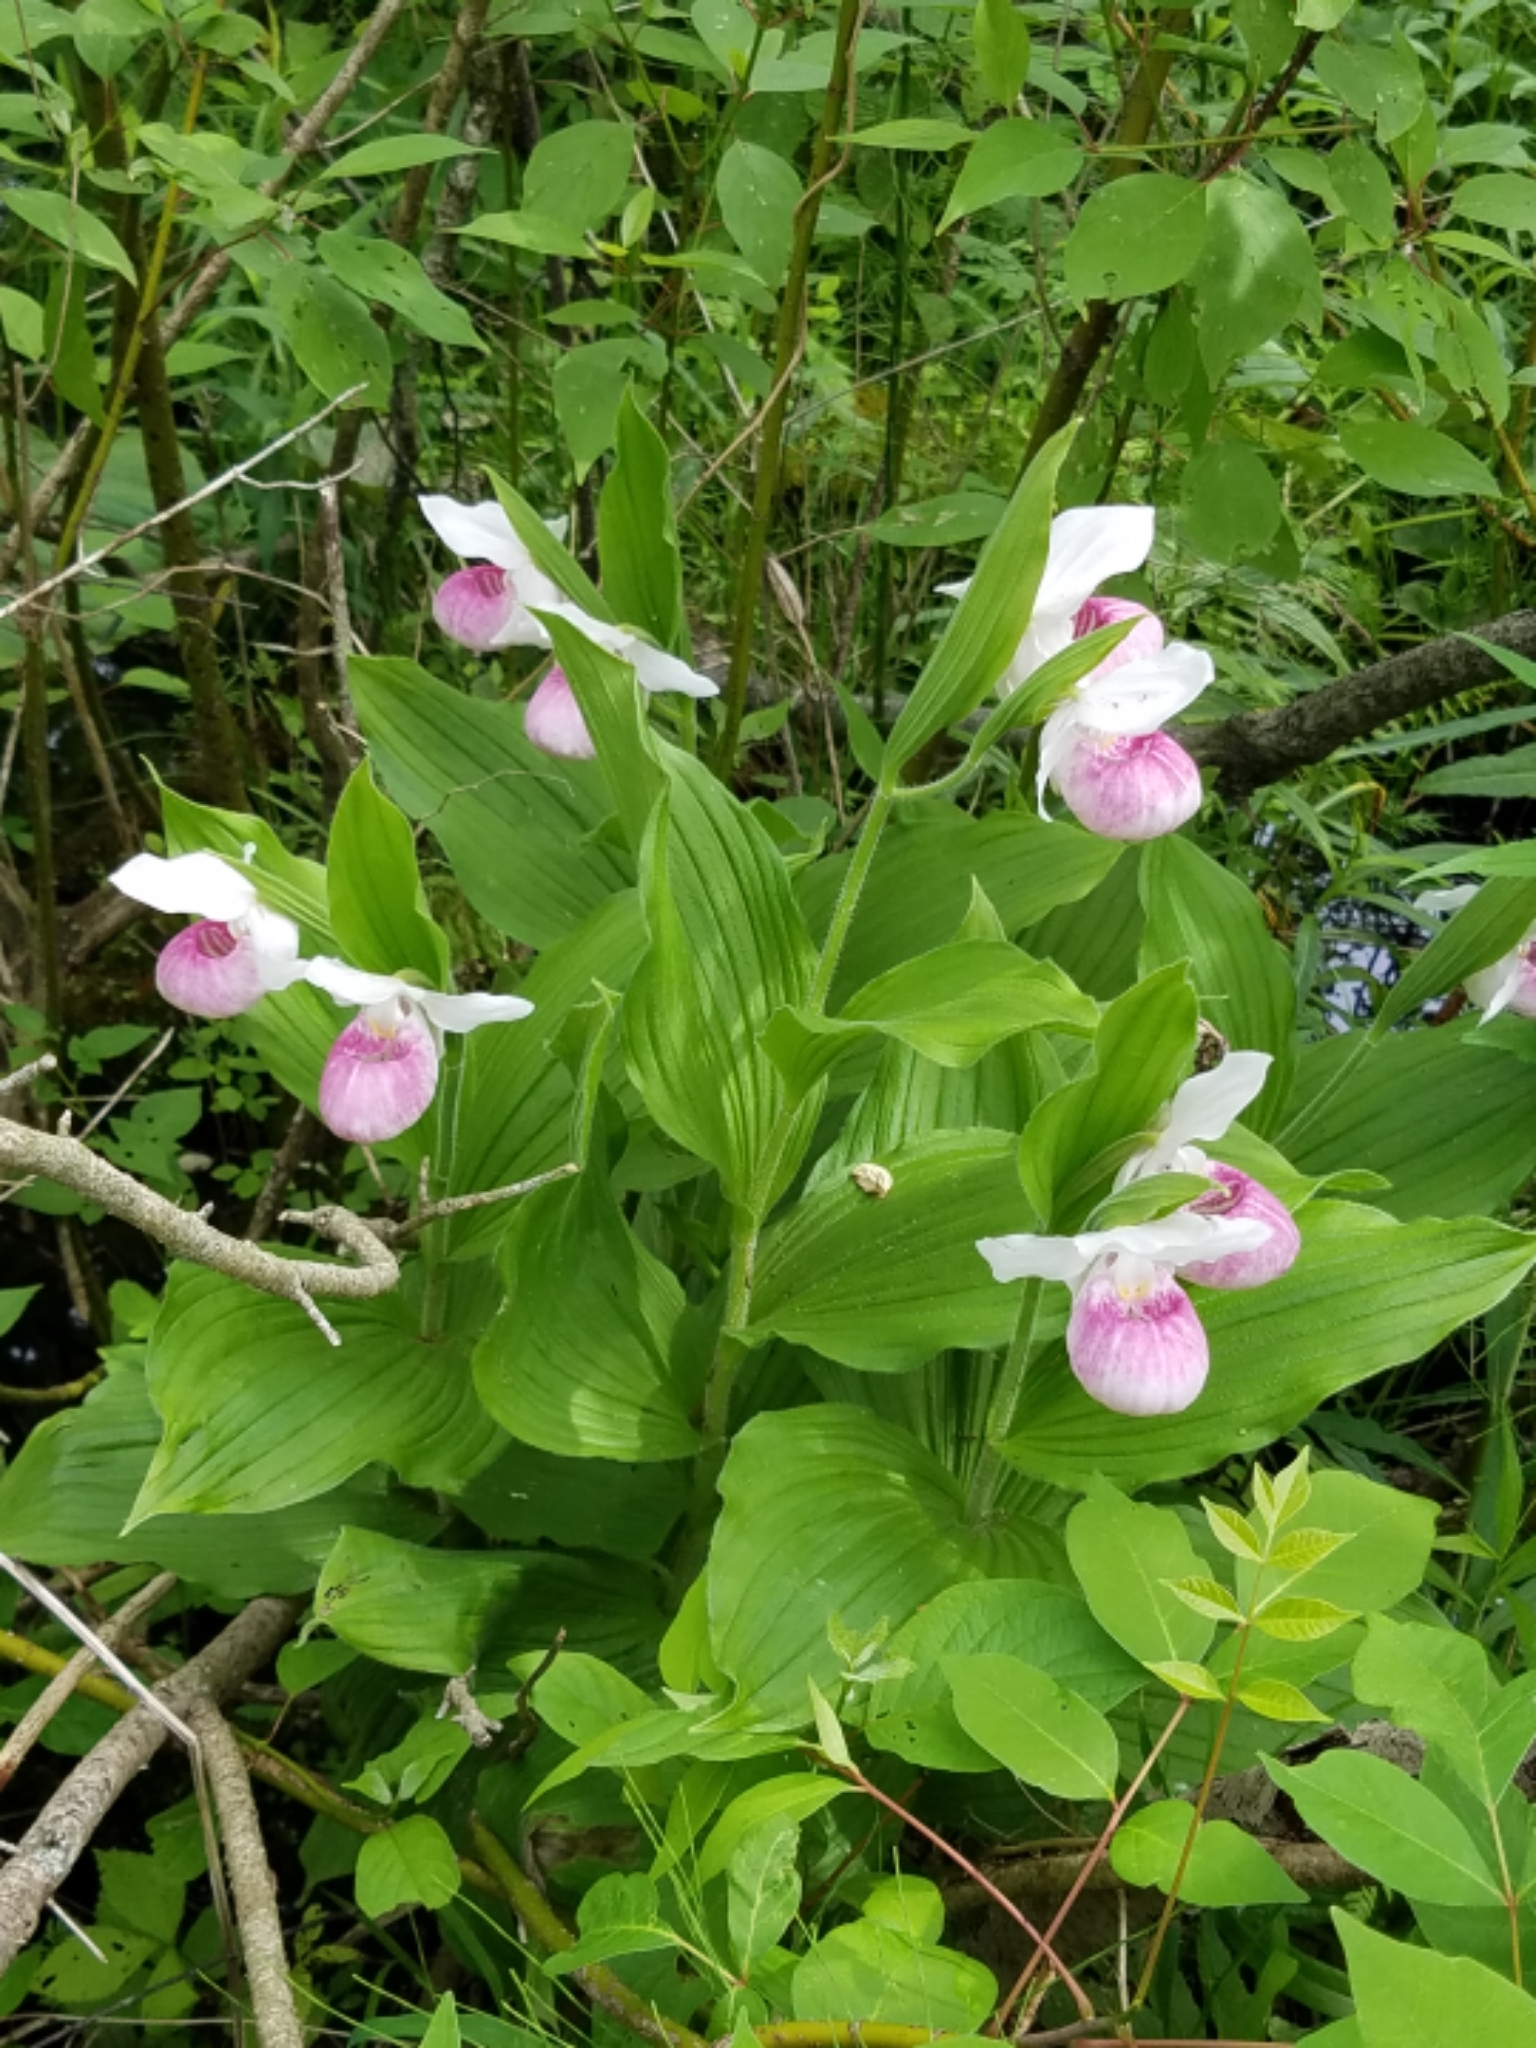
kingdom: Plantae
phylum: Tracheophyta
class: Liliopsida
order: Asparagales
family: Orchidaceae
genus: Cypripedium
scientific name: Cypripedium reginae
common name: Queen lady's-slipper
